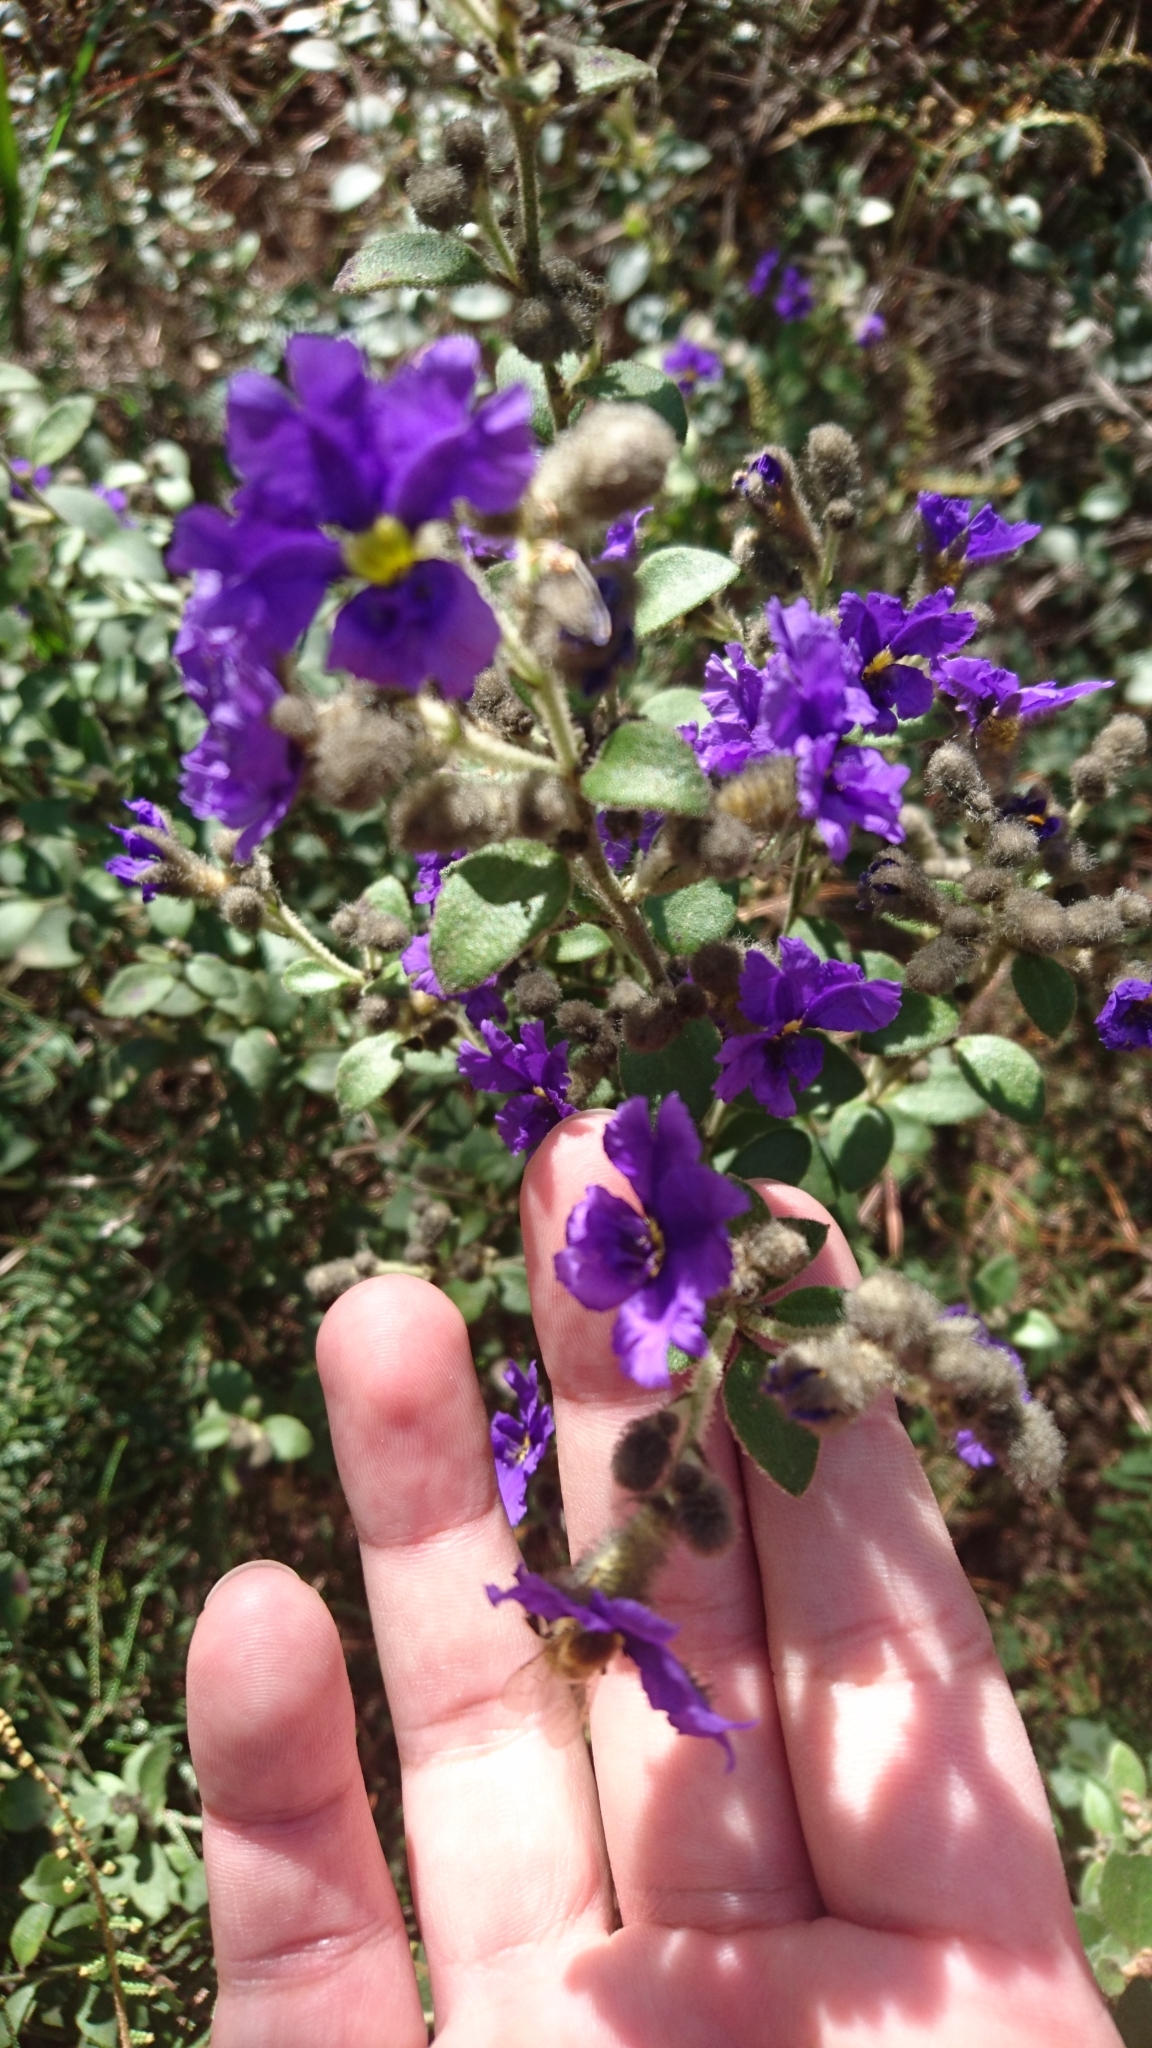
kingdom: Plantae
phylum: Tracheophyta
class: Magnoliopsida
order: Asterales
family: Goodeniaceae
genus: Dampiera
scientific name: Dampiera purpurea
